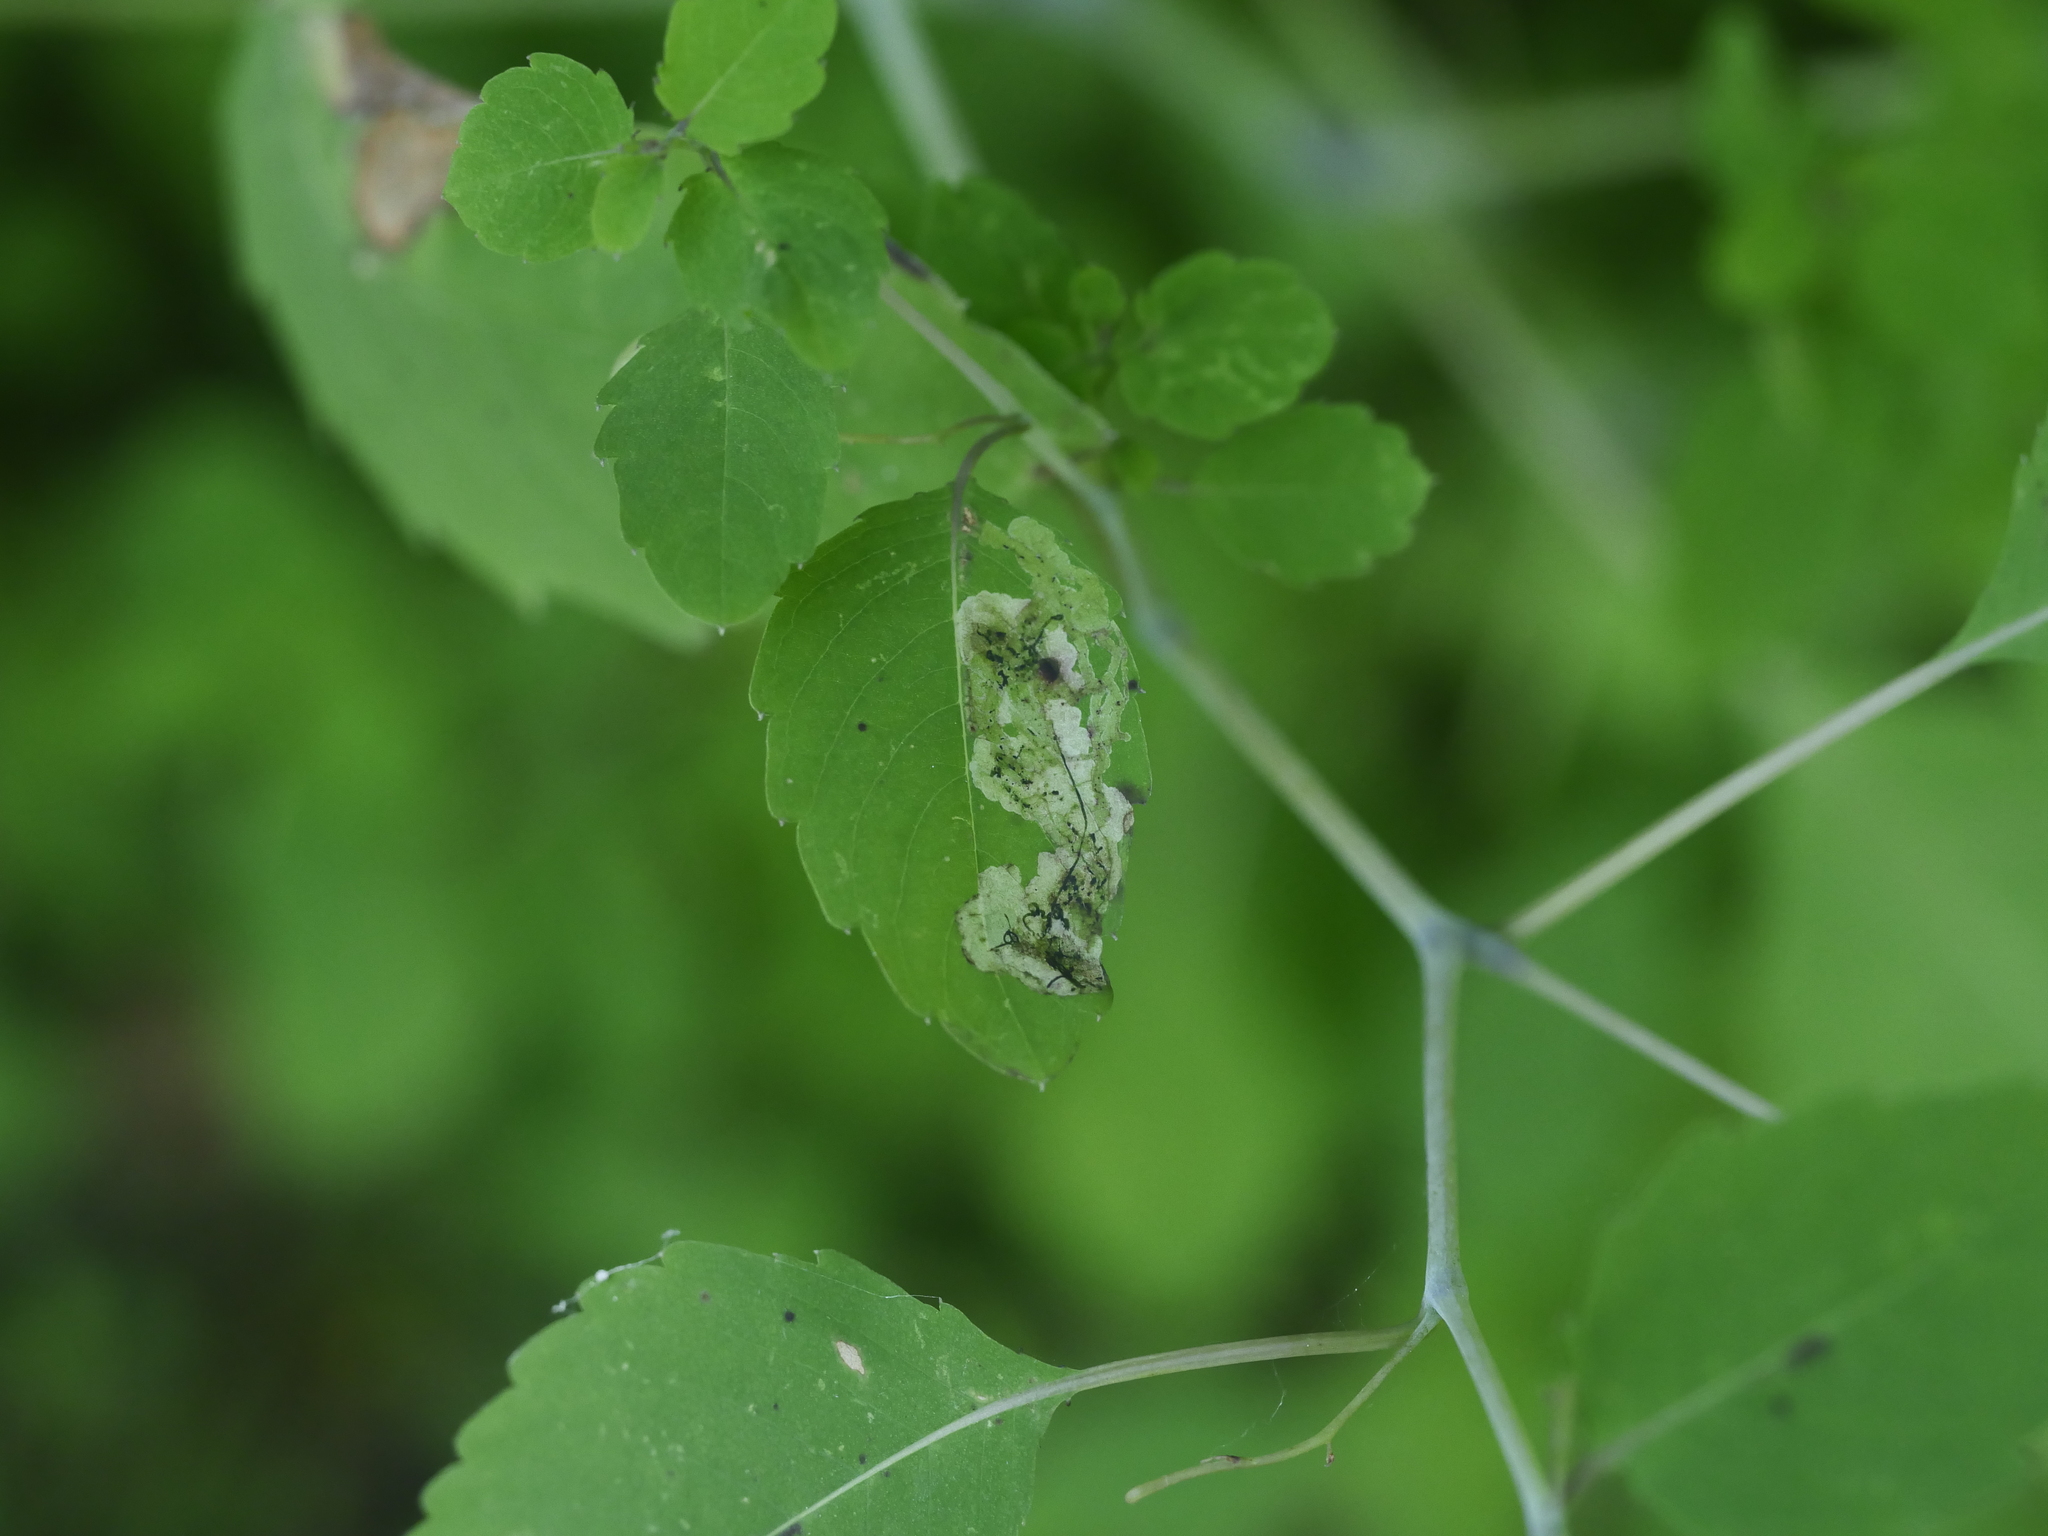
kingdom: Animalia
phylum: Arthropoda
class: Insecta
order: Diptera
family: Agromyzidae
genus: Phytoliriomyza
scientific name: Phytoliriomyza melampyga
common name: Jewelweed leaf-miner fly
